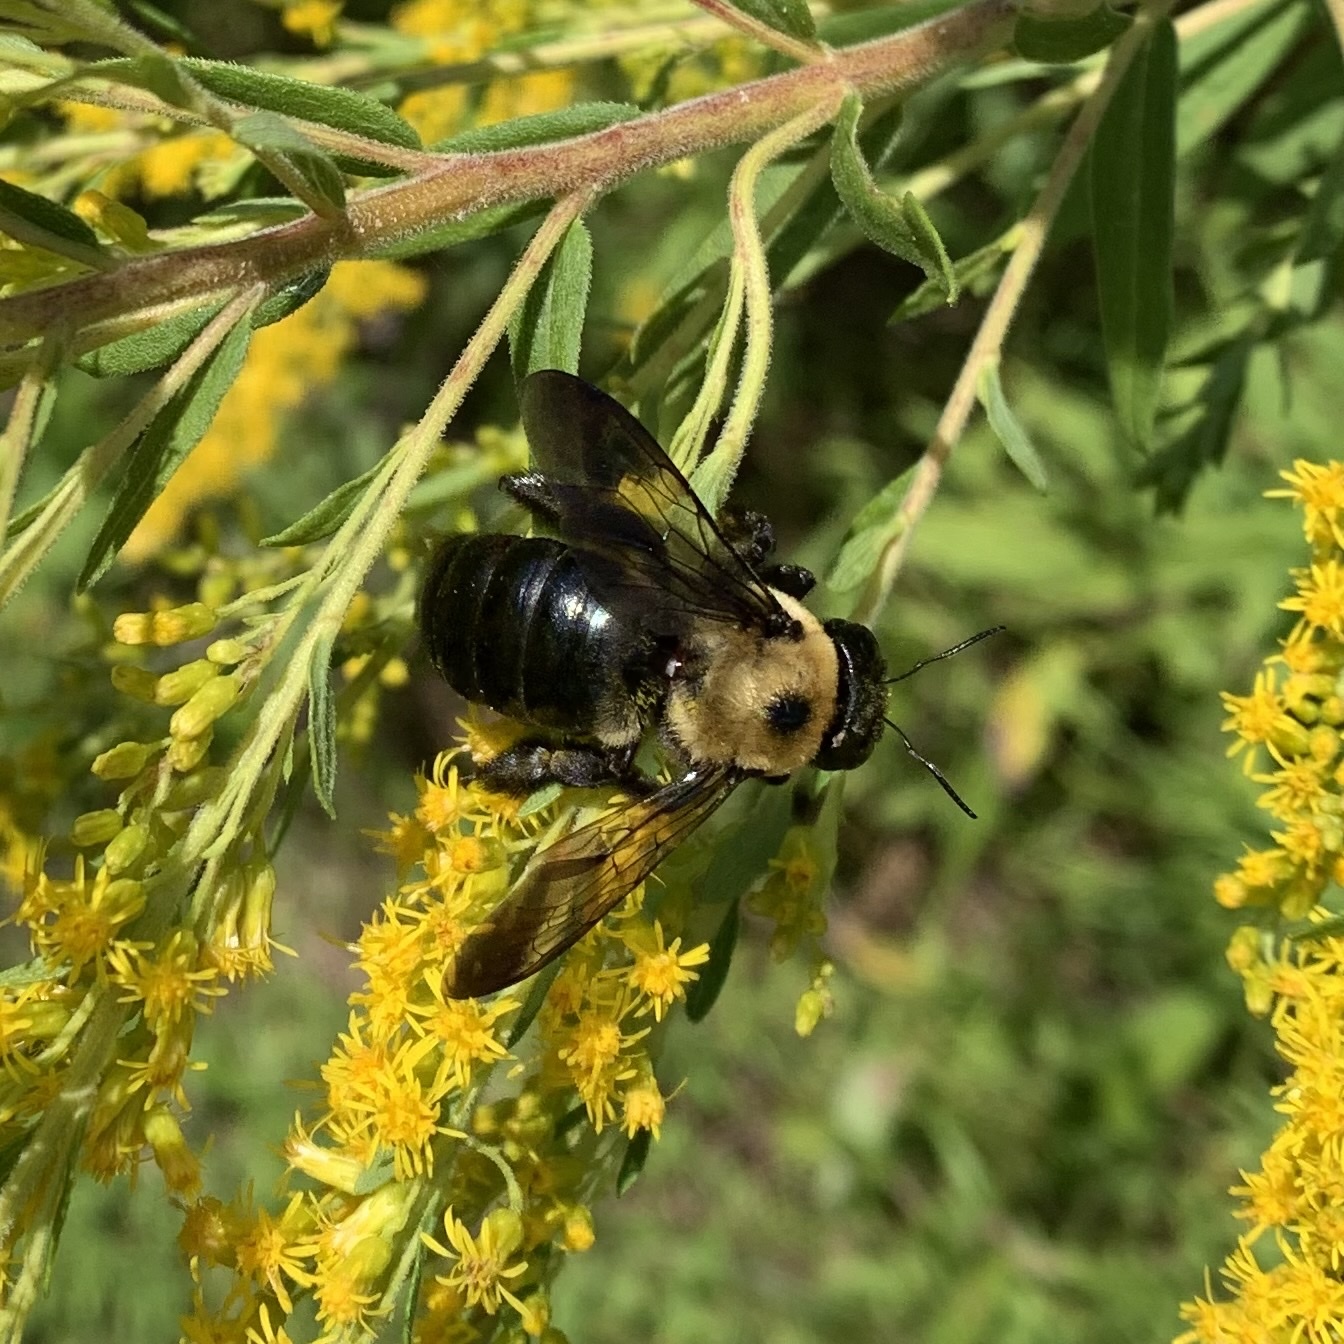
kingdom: Animalia
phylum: Arthropoda
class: Insecta
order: Hymenoptera
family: Apidae
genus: Xylocopa
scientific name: Xylocopa virginica
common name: Carpenter bee
